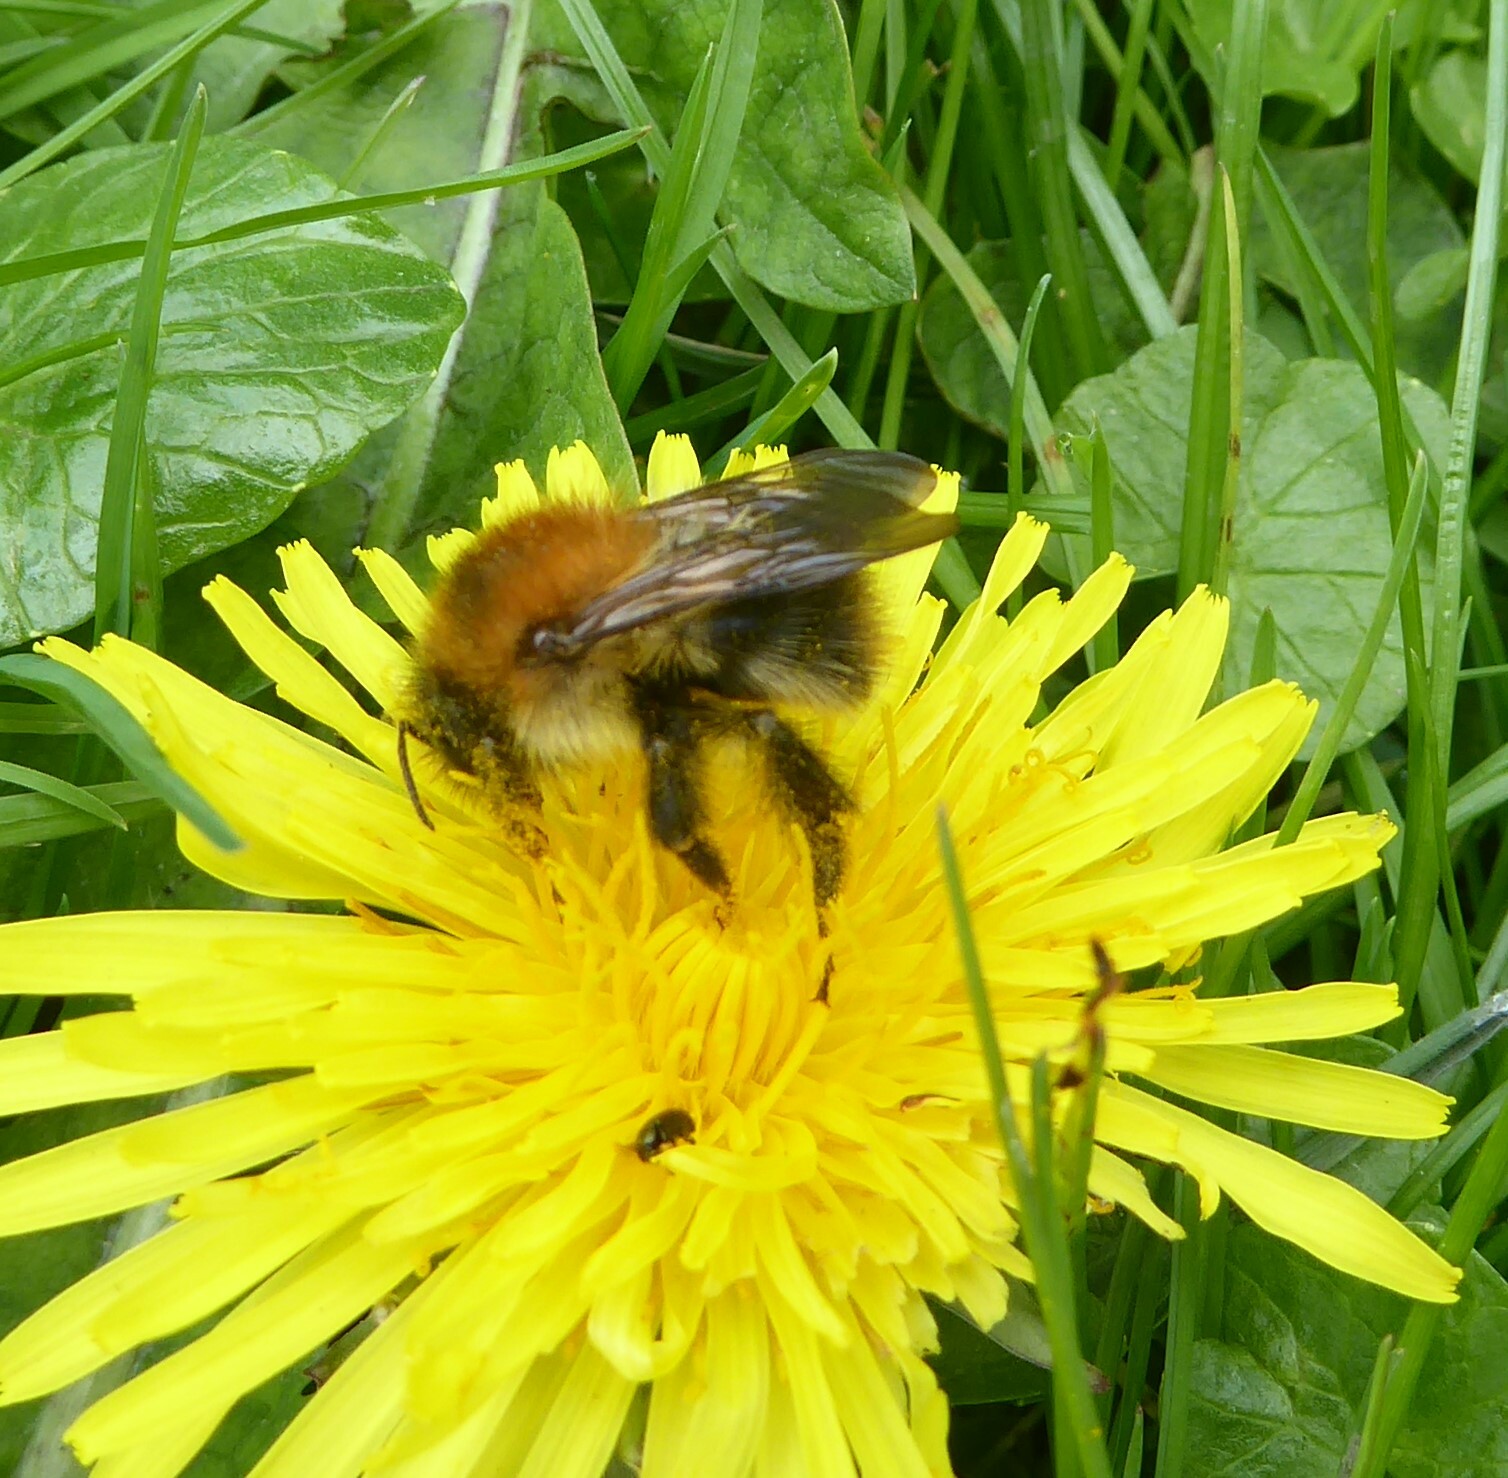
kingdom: Animalia
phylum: Arthropoda
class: Insecta
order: Hymenoptera
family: Apidae
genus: Bombus
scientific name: Bombus pascuorum
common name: Common carder bee
